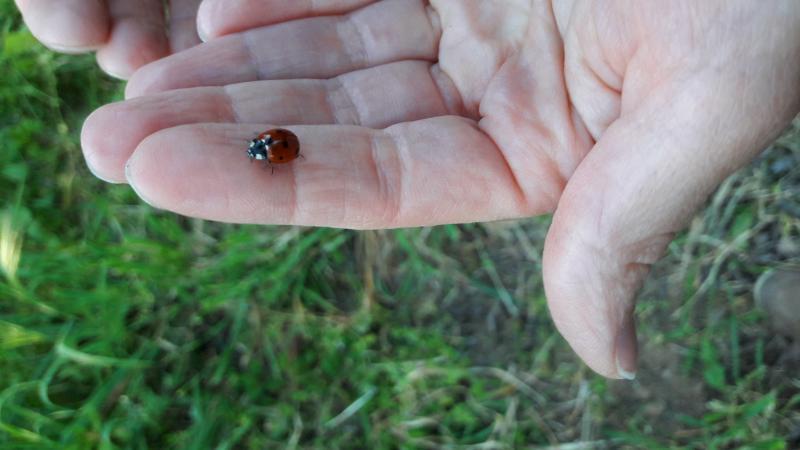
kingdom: Animalia
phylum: Arthropoda
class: Insecta
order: Coleoptera
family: Coccinellidae
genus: Coccinella
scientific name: Coccinella septempunctata
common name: Sevenspotted lady beetle
